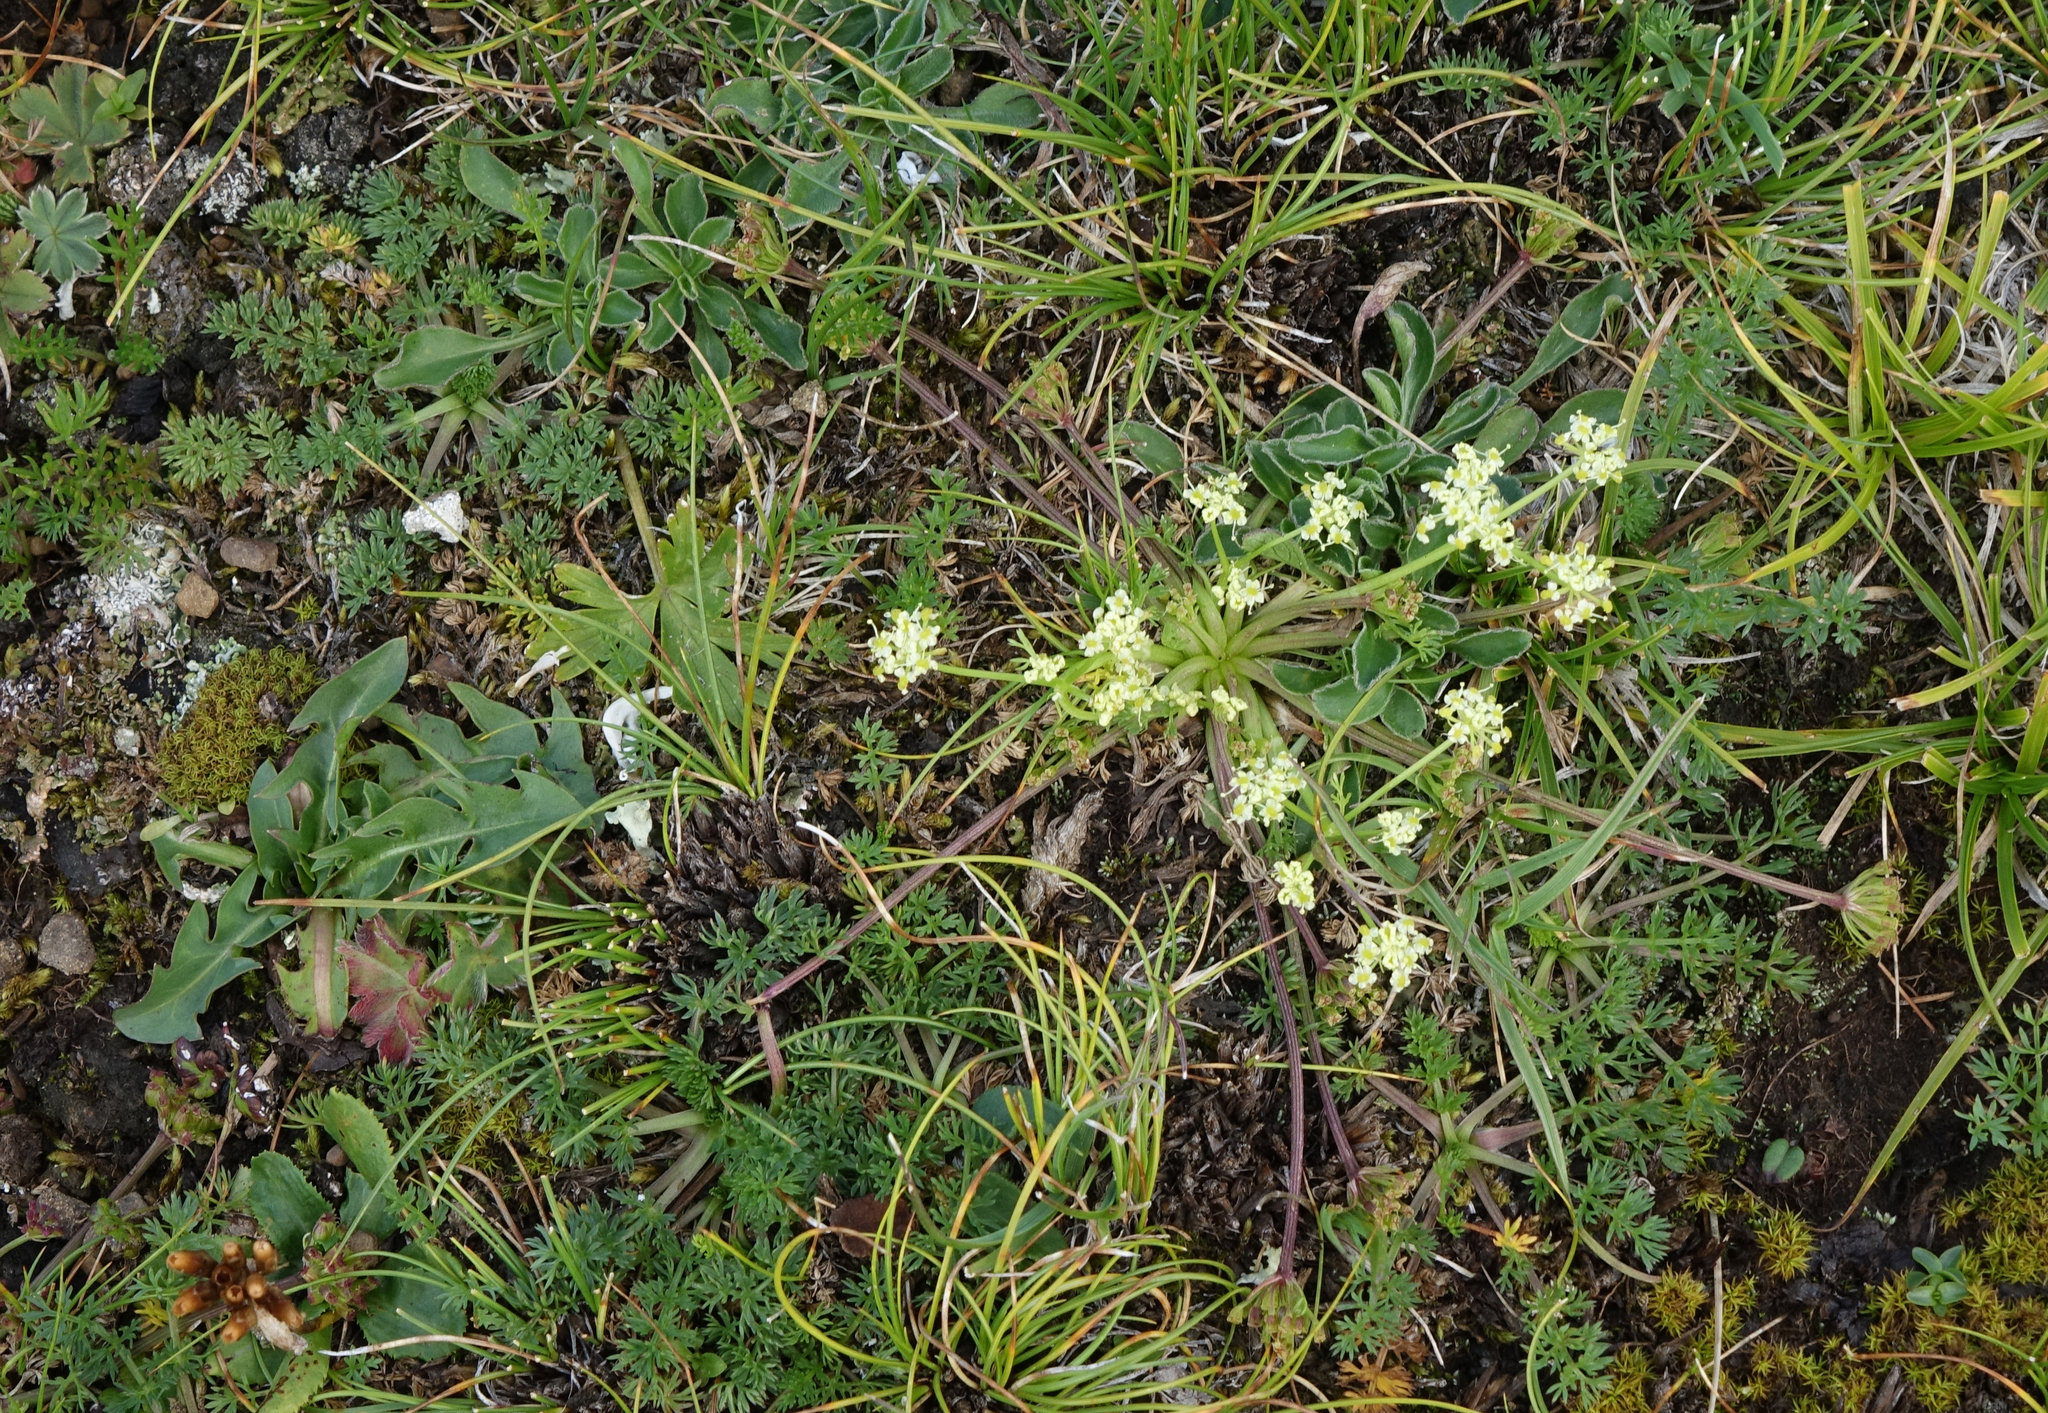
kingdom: Plantae
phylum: Tracheophyta
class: Magnoliopsida
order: Apiales
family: Apiaceae
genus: Chamaesciadium
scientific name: Chamaesciadium acaule
